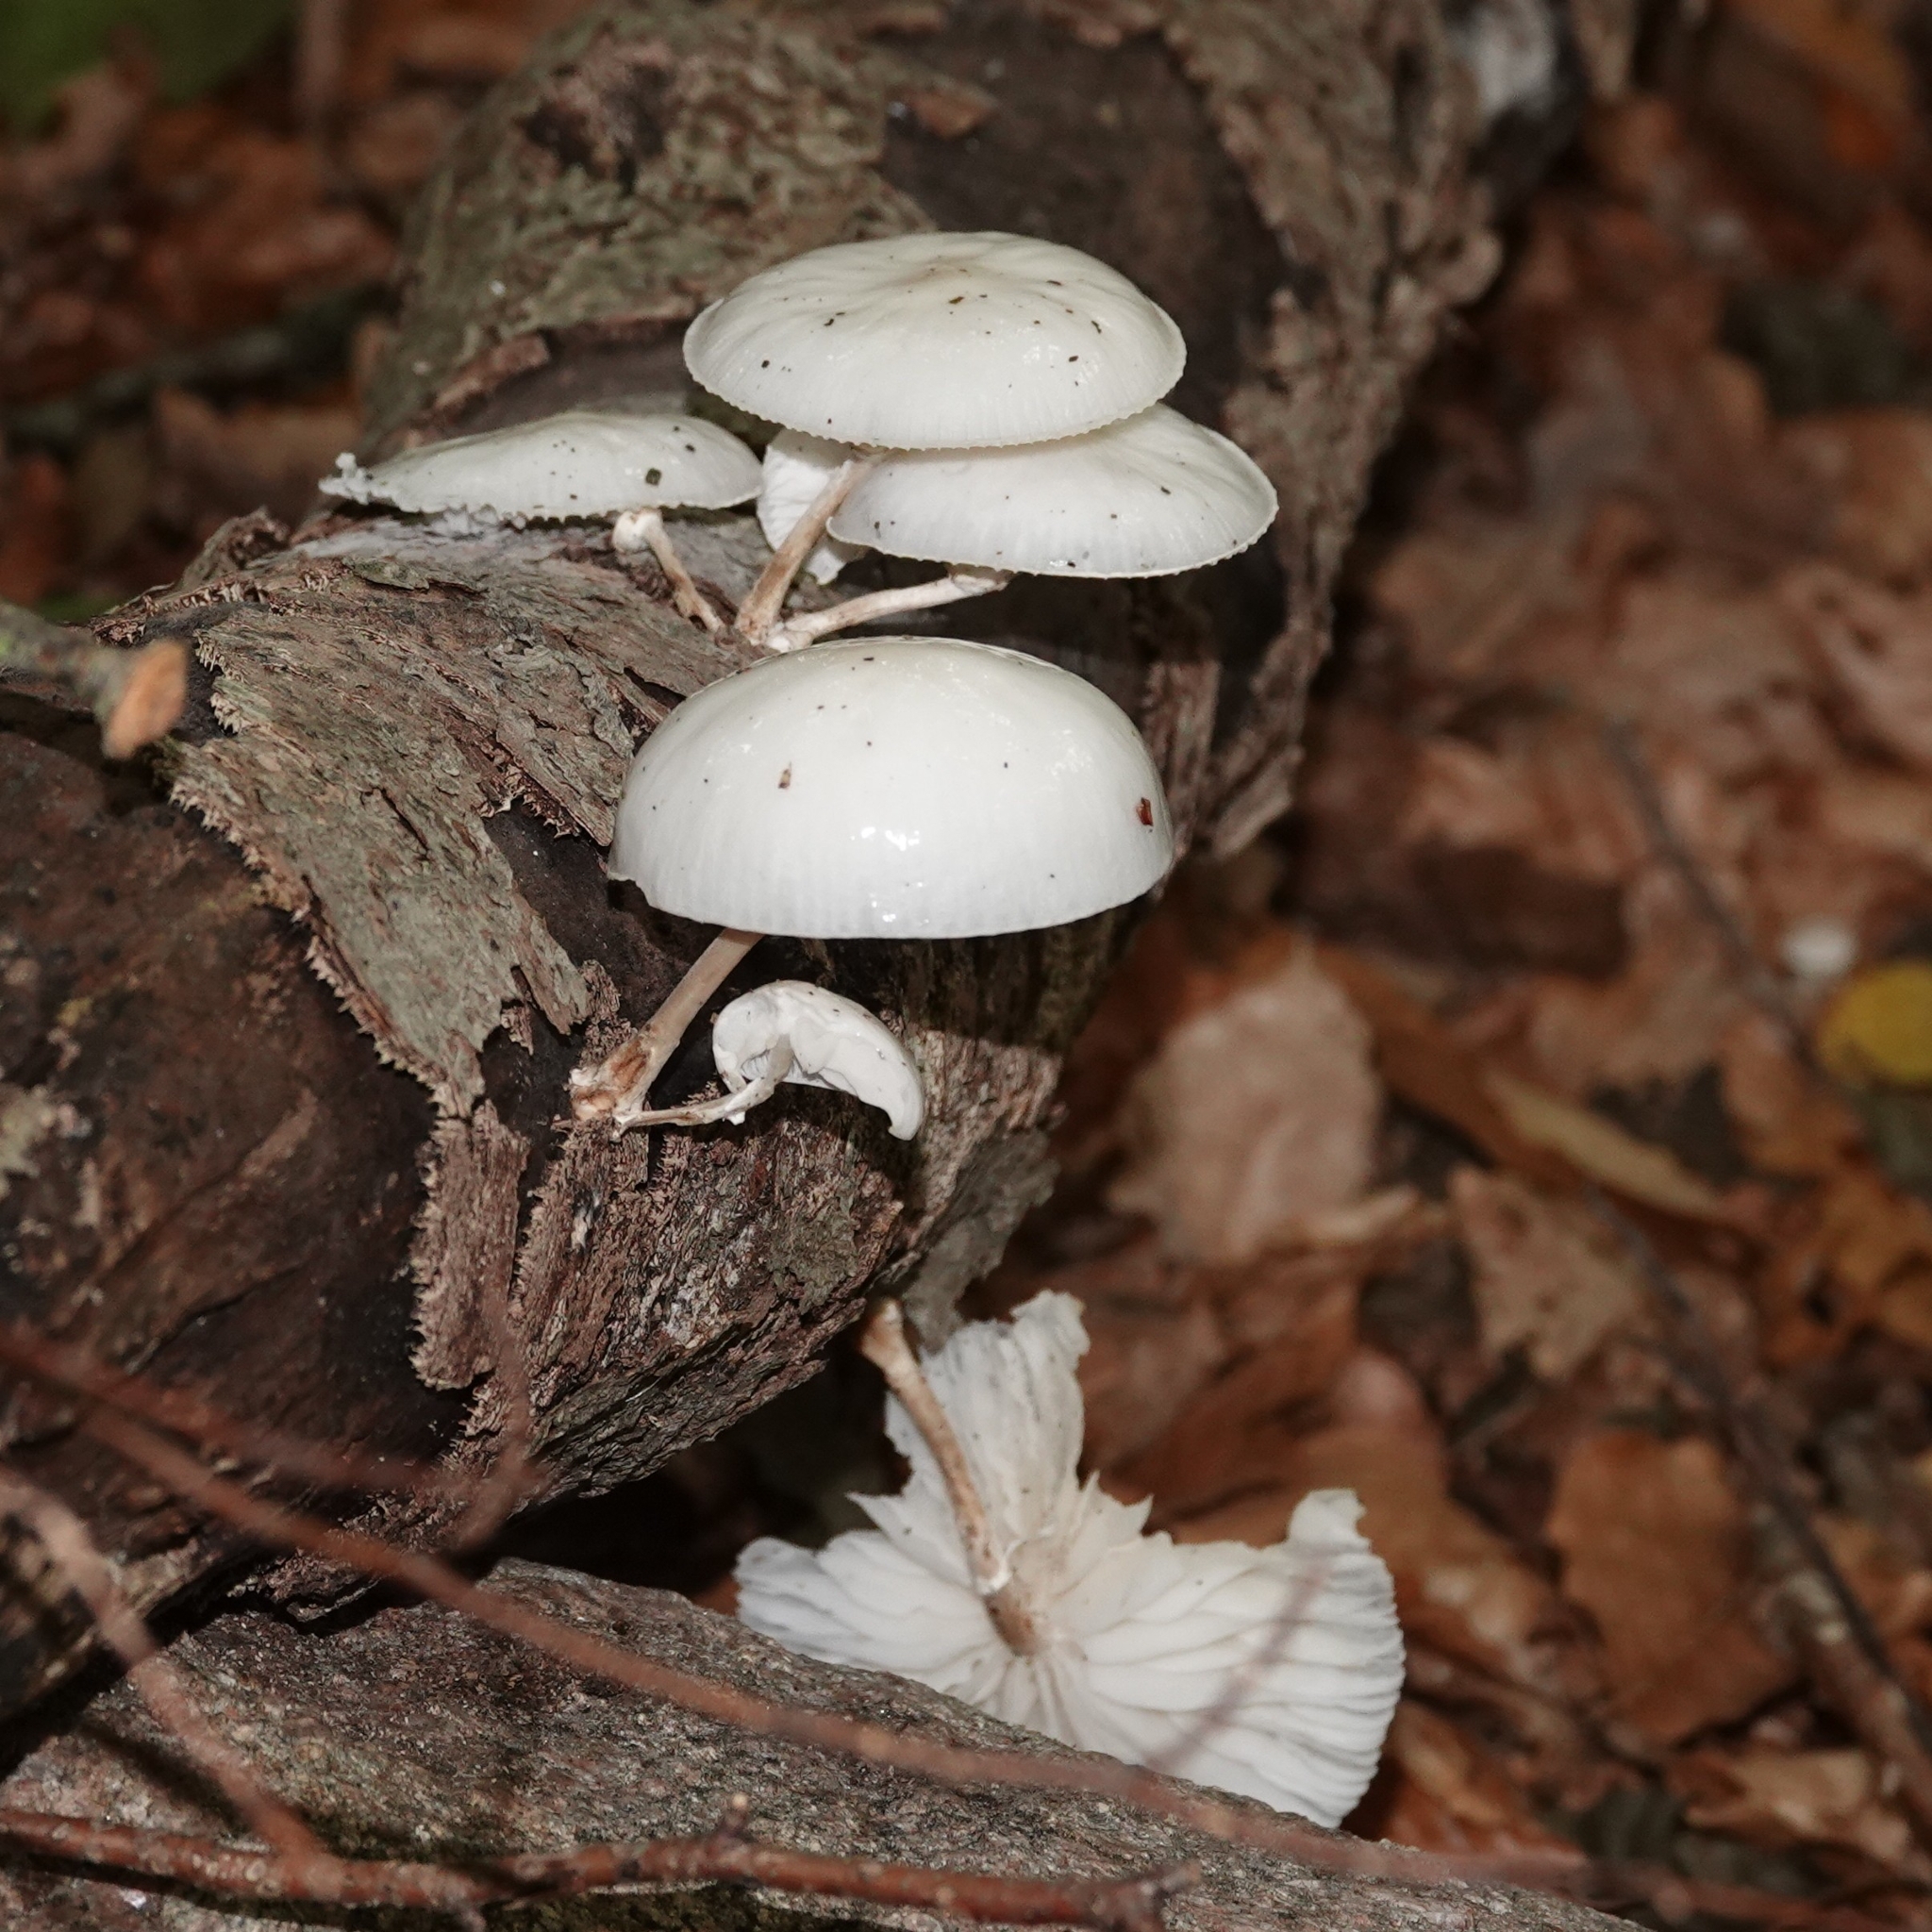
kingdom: Fungi
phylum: Basidiomycota
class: Agaricomycetes
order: Agaricales
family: Physalacriaceae
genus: Mucidula
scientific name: Mucidula mucida
